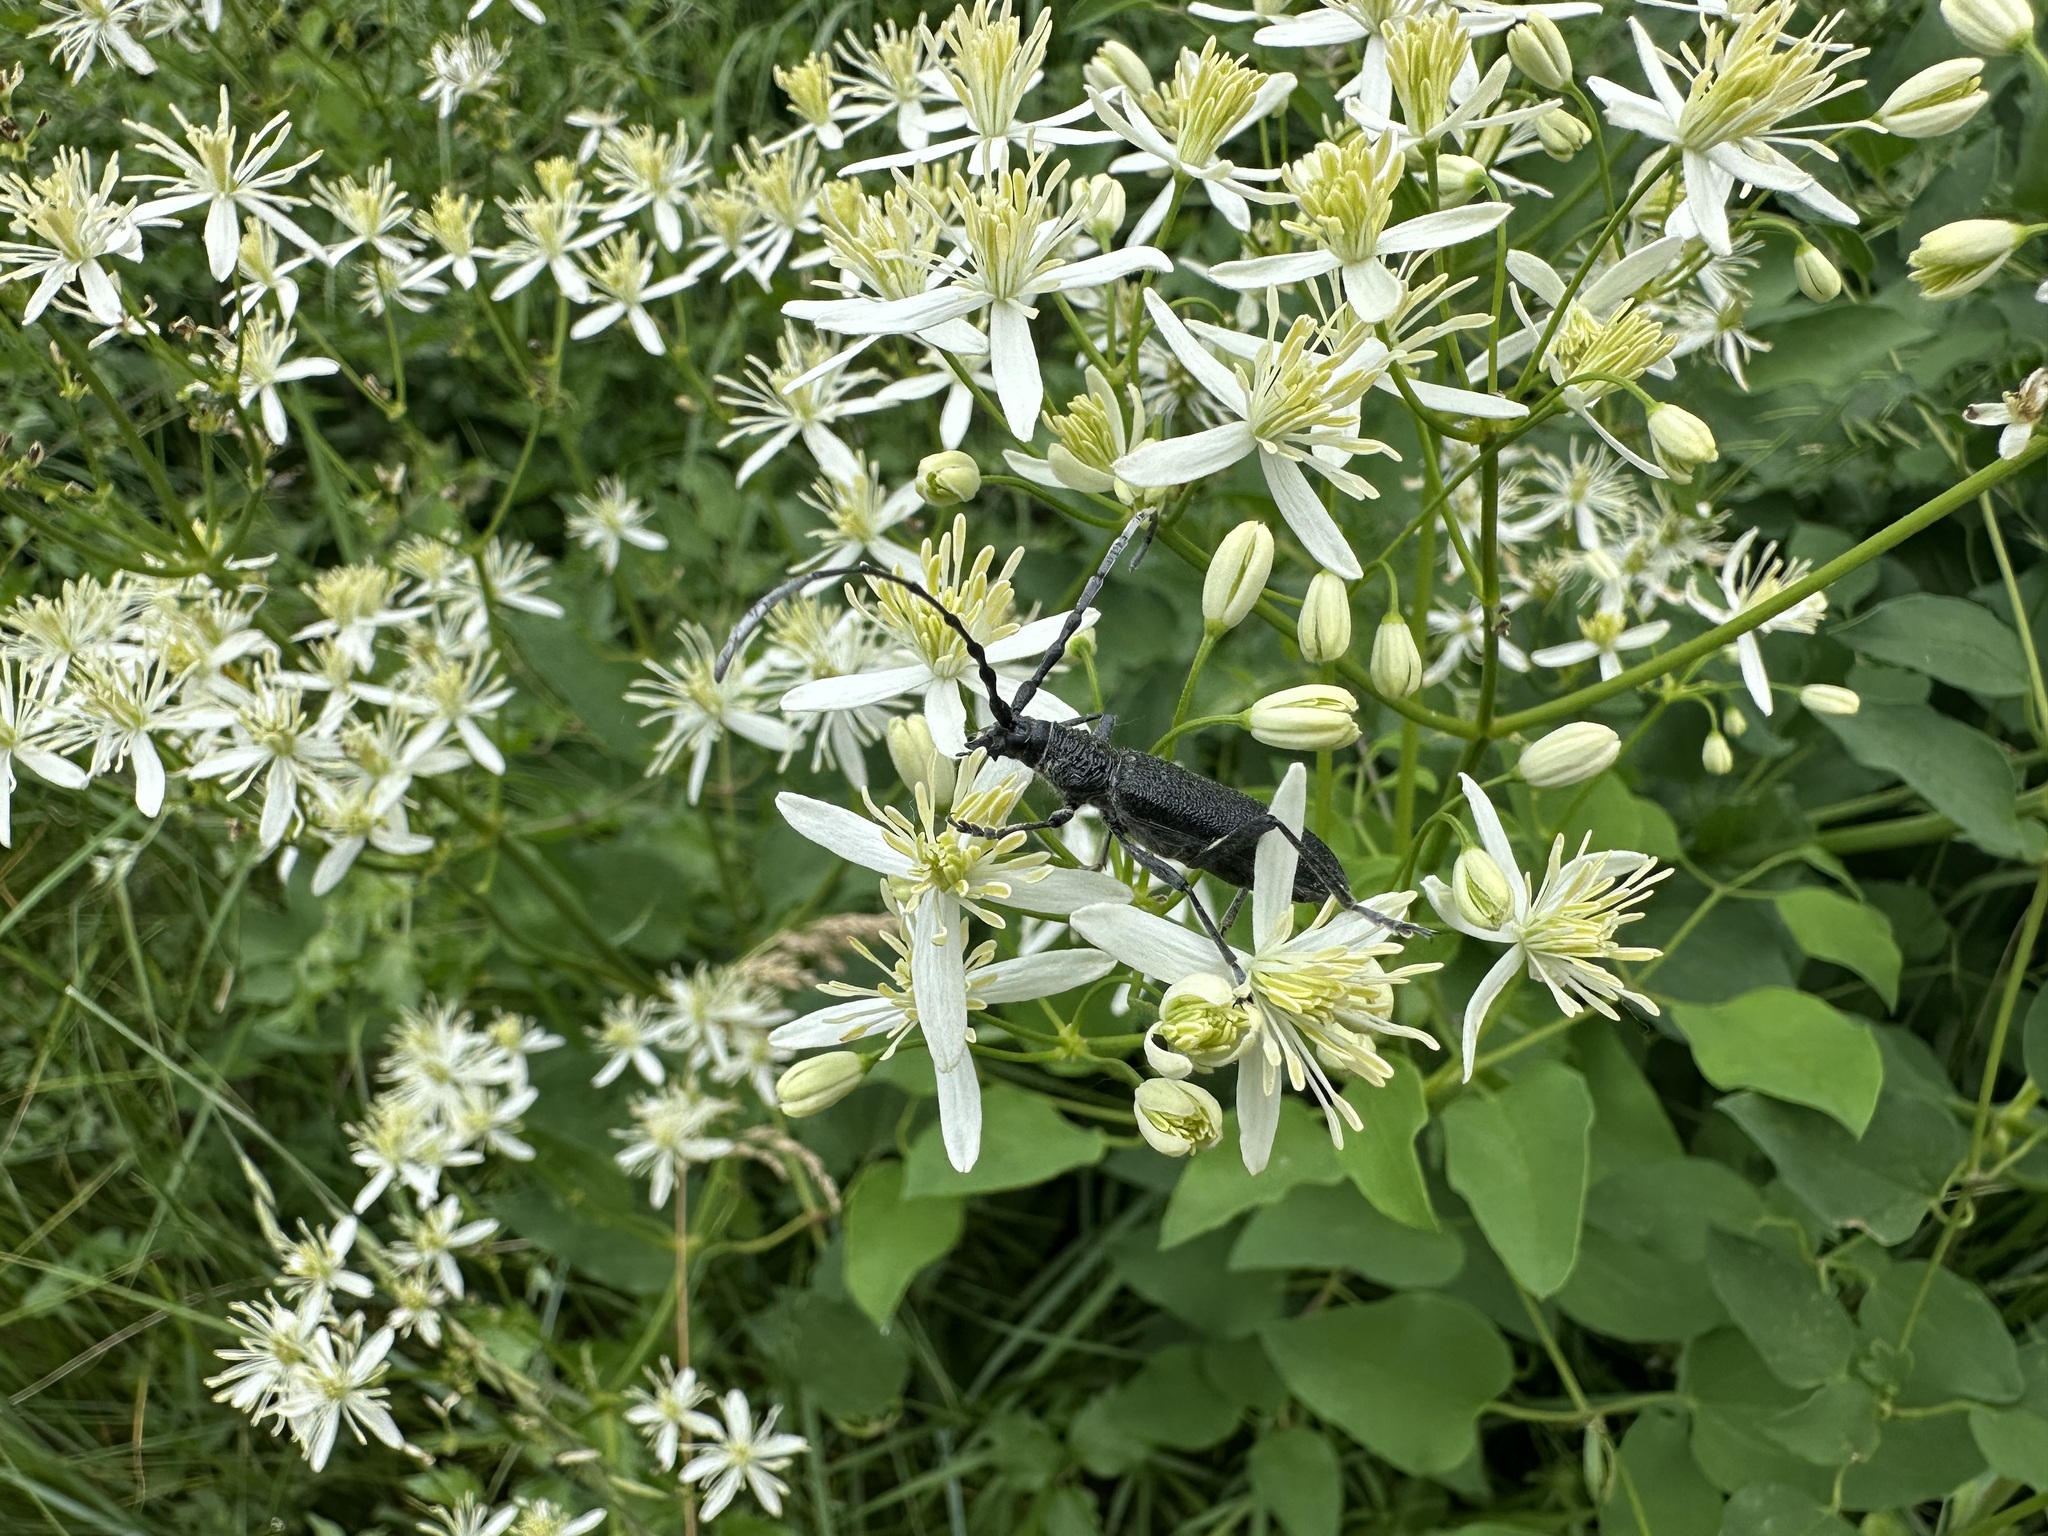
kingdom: Animalia
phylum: Arthropoda
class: Insecta
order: Coleoptera
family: Cerambycidae
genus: Cerambyx
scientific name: Cerambyx scopolii
